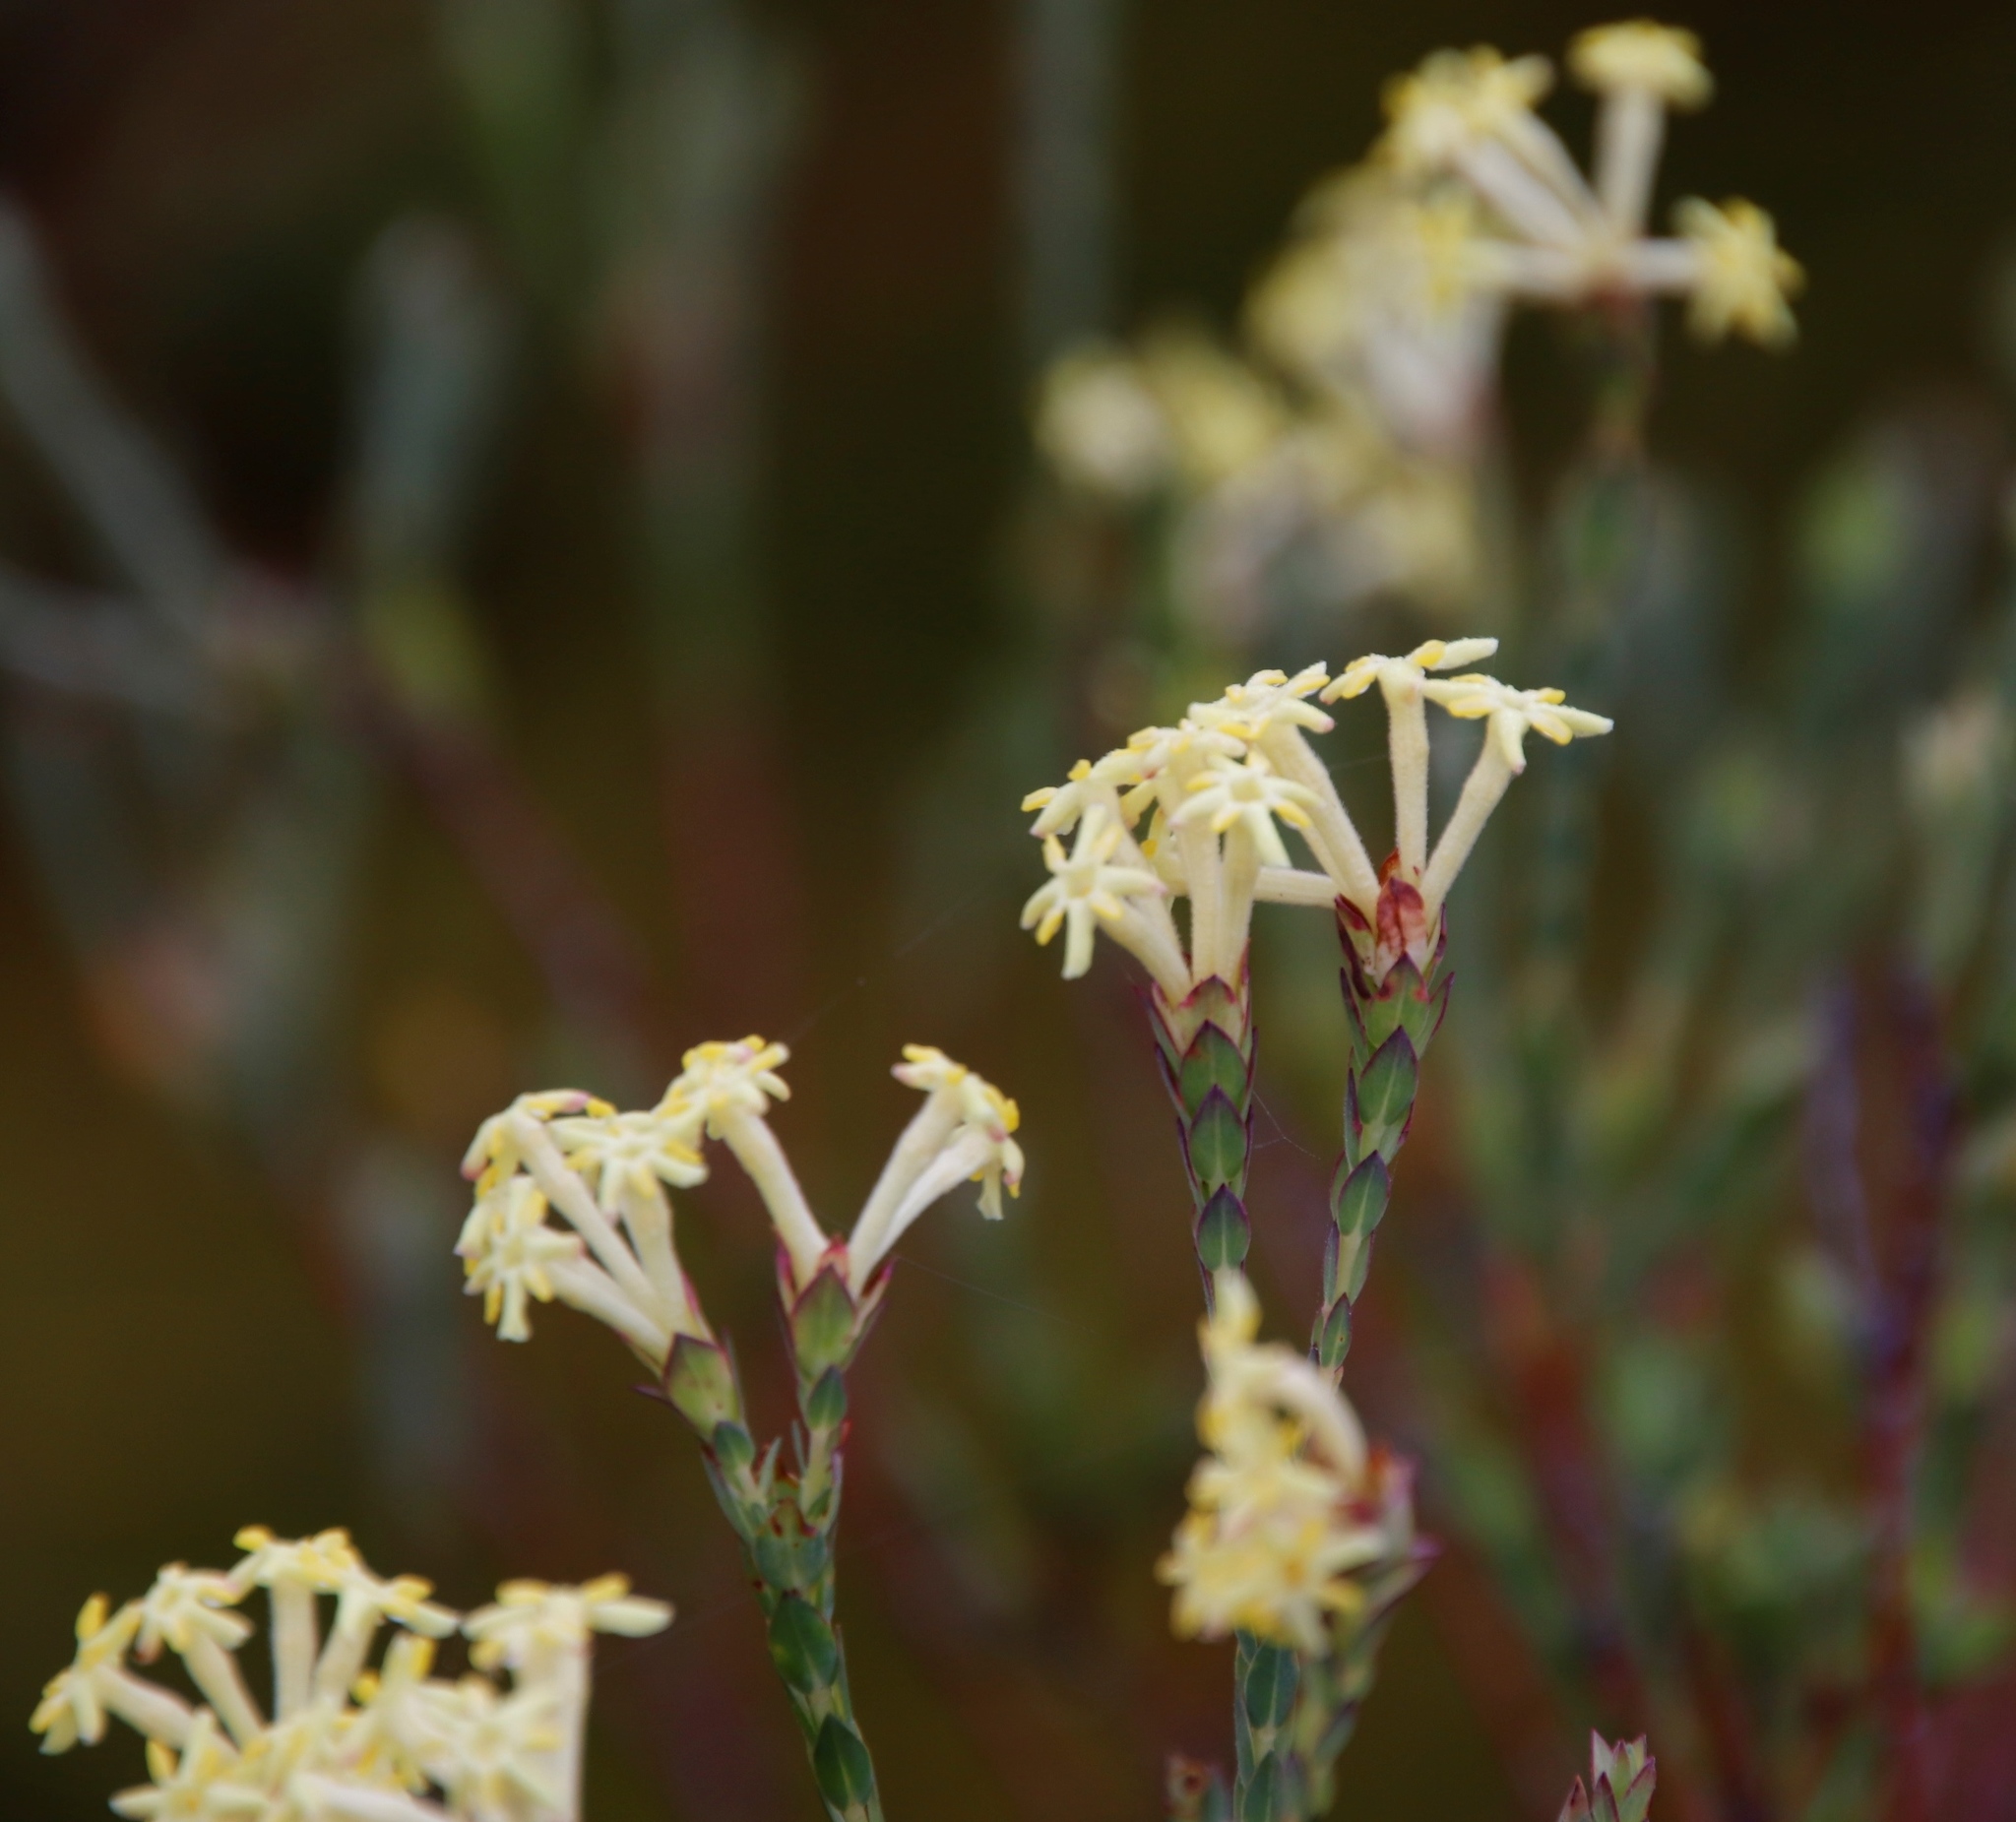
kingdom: Plantae
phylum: Tracheophyta
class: Magnoliopsida
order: Malvales
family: Thymelaeaceae
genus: Gnidia
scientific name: Gnidia oppositifolia
